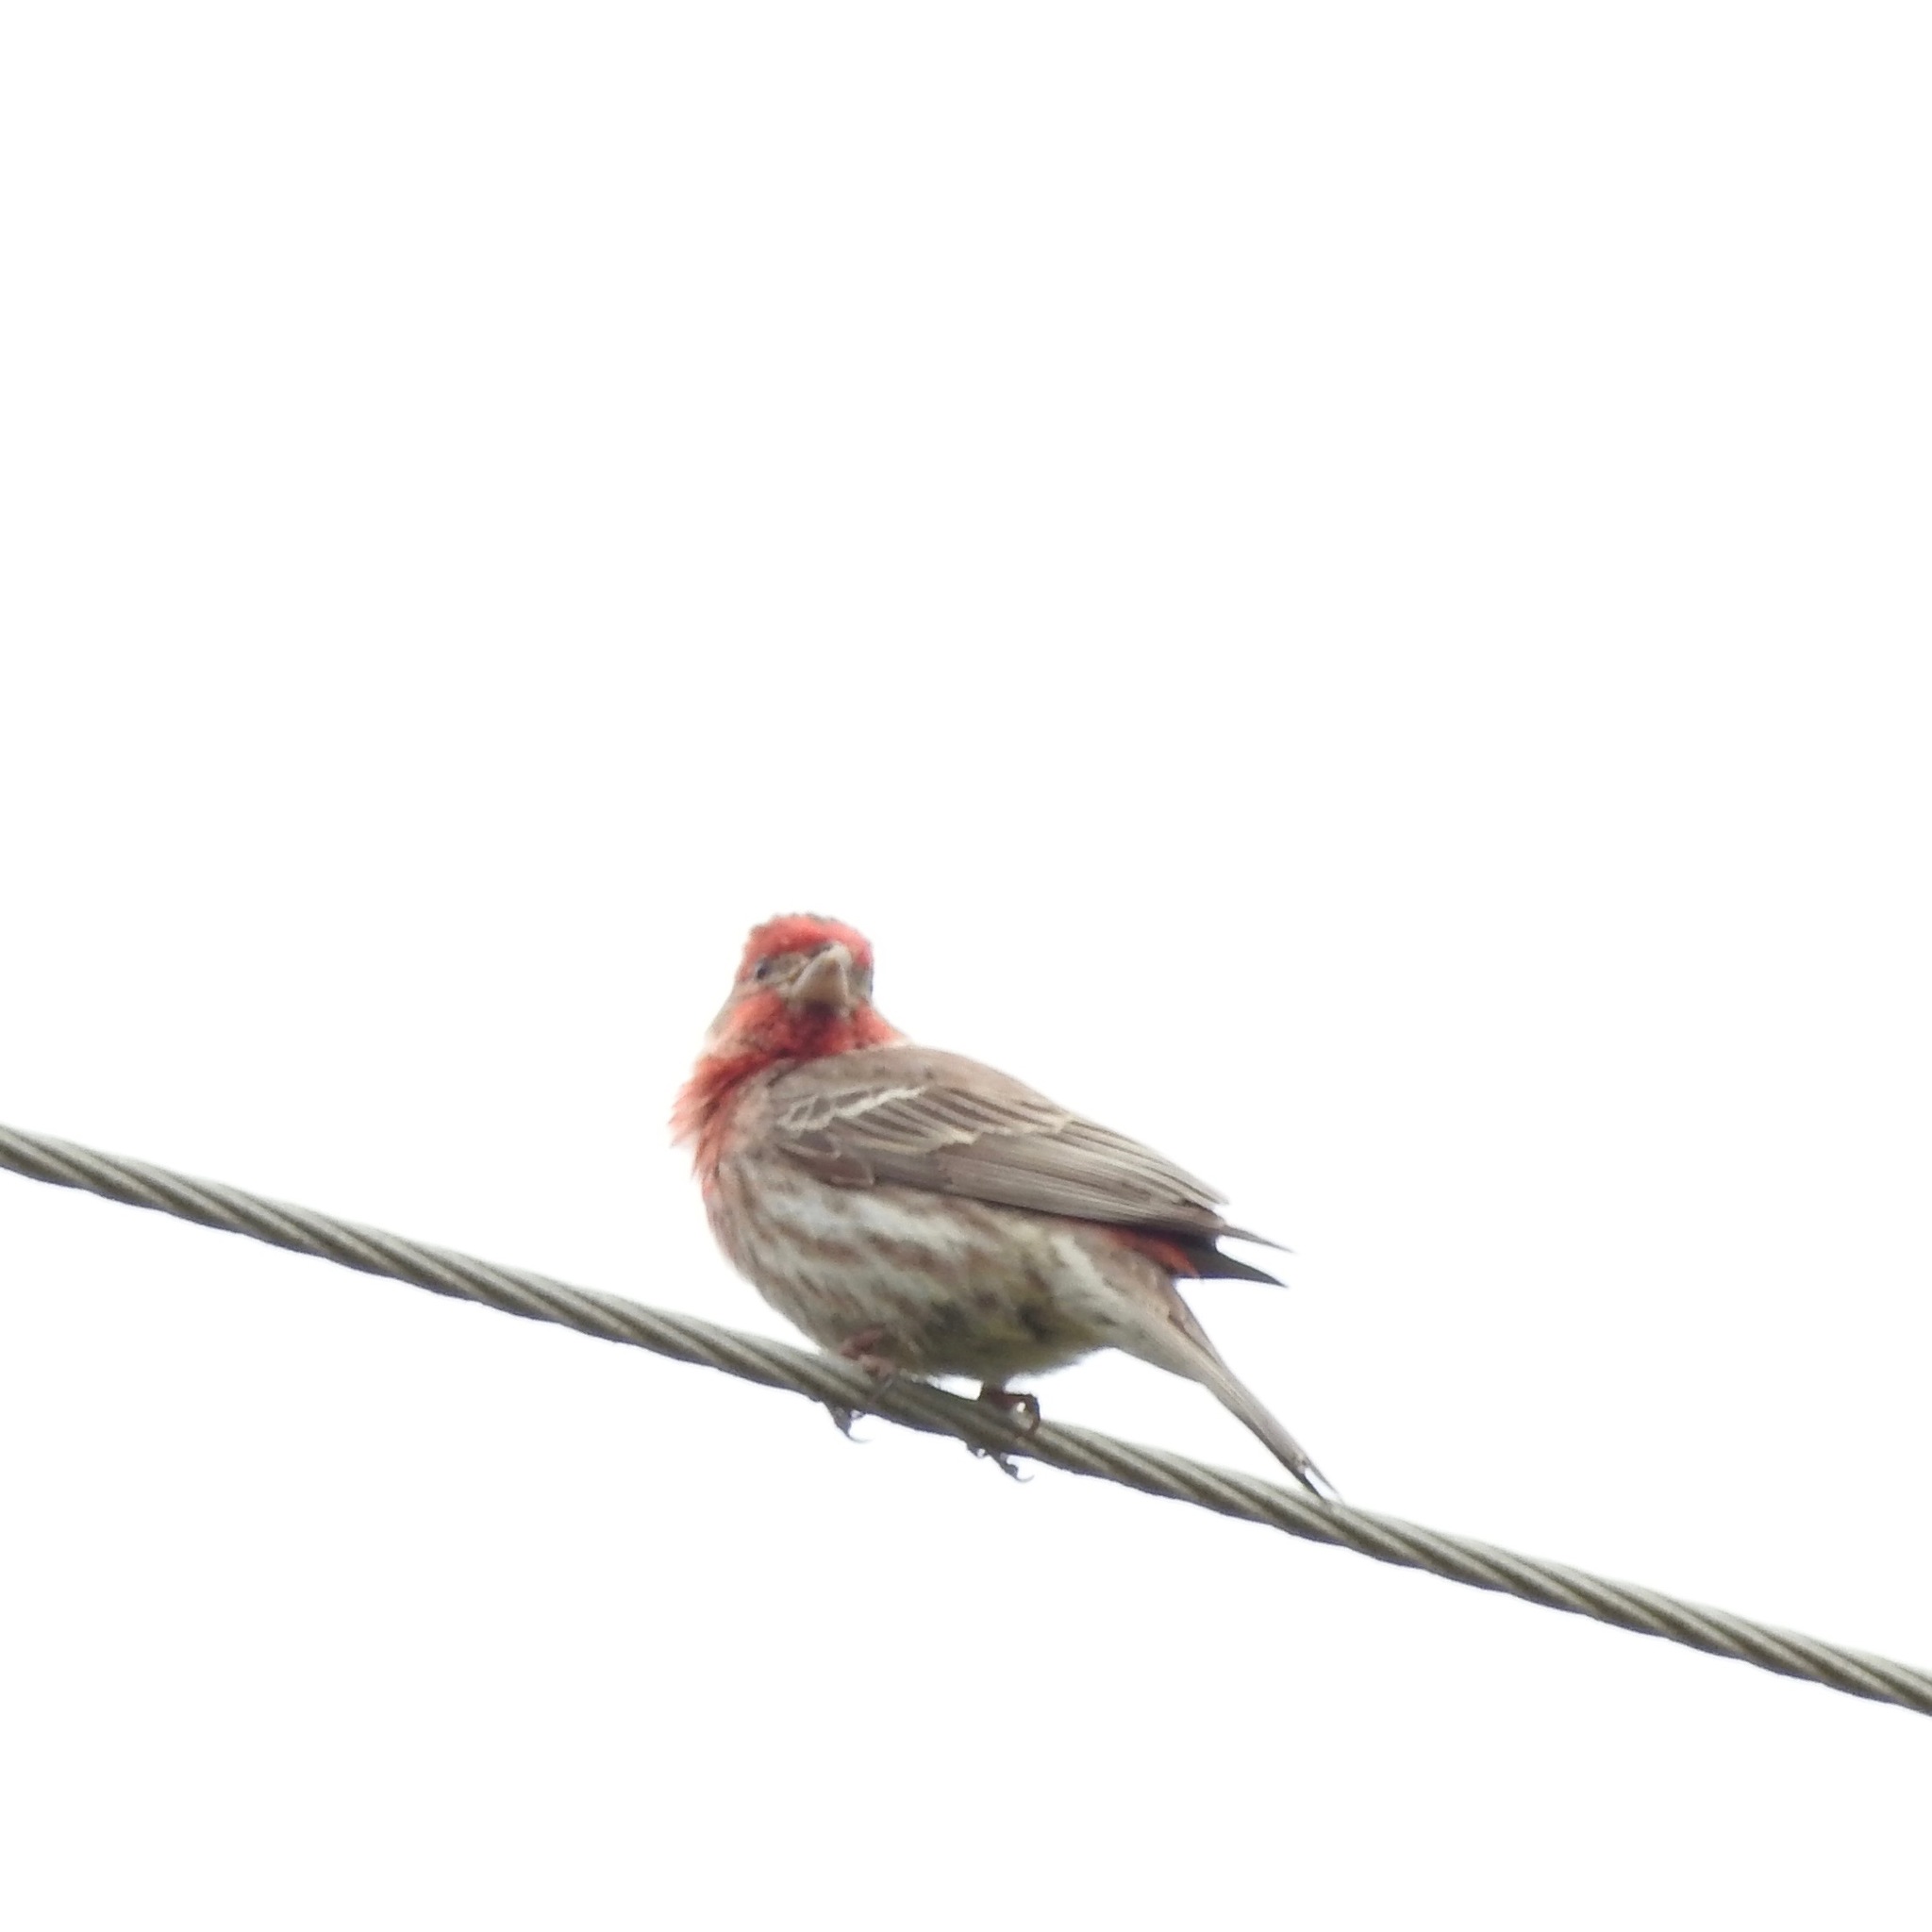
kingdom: Animalia
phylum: Chordata
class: Aves
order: Passeriformes
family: Fringillidae
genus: Haemorhous
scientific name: Haemorhous mexicanus
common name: House finch
